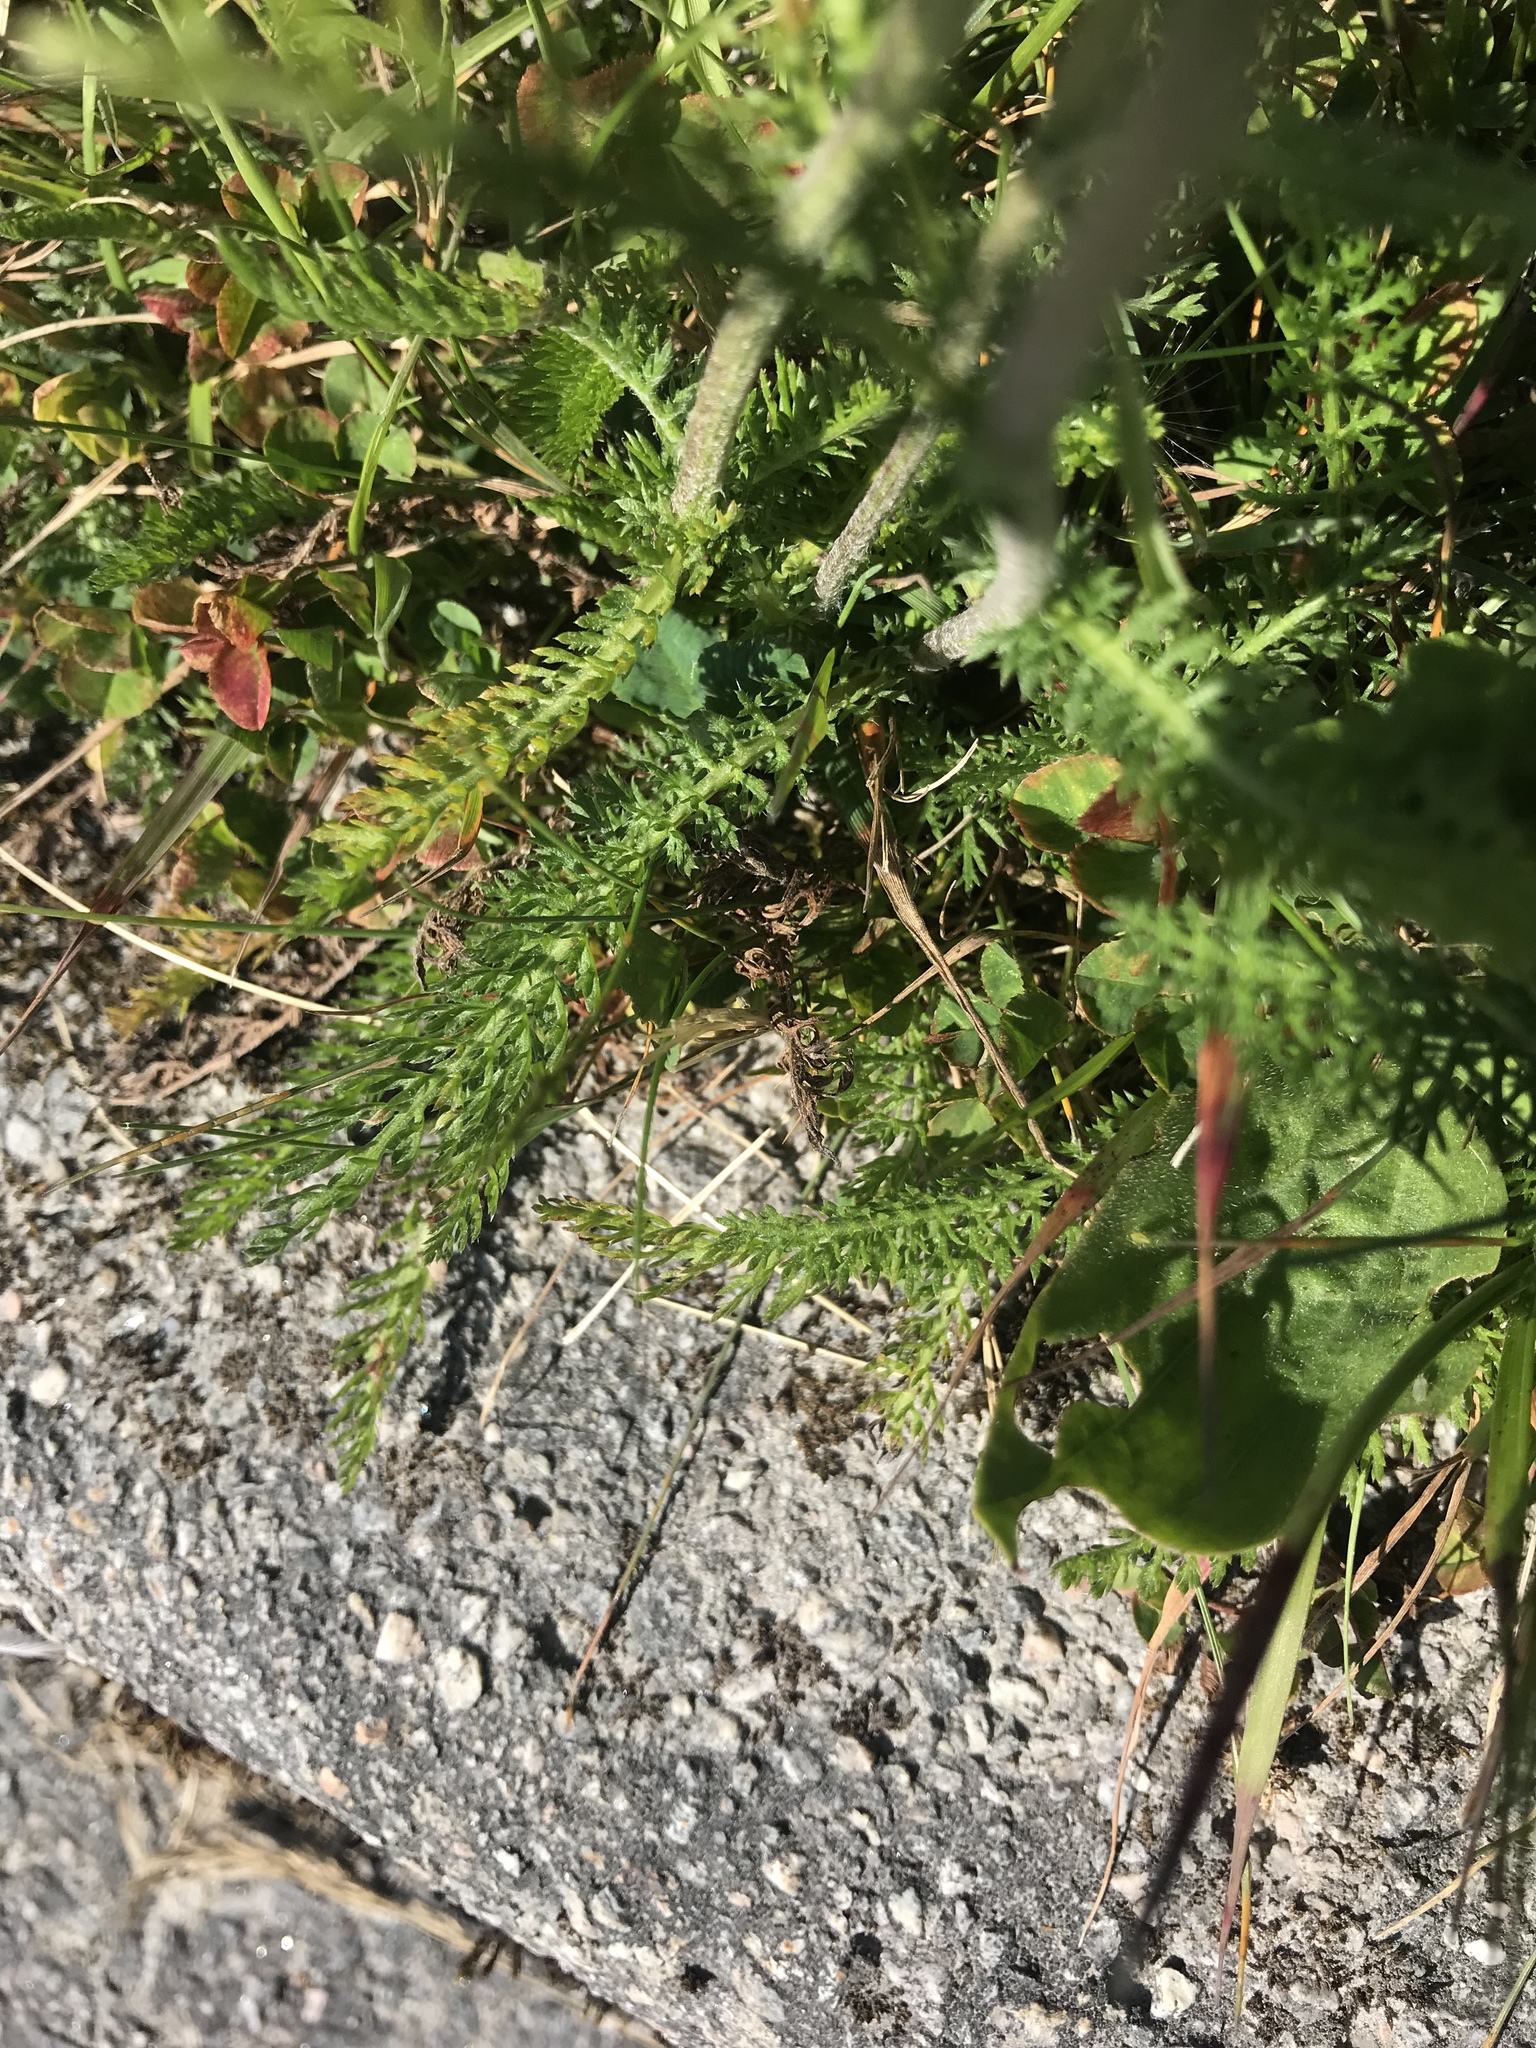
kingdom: Plantae
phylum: Tracheophyta
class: Magnoliopsida
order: Asterales
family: Asteraceae
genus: Achillea
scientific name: Achillea millefolium
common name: Yarrow
